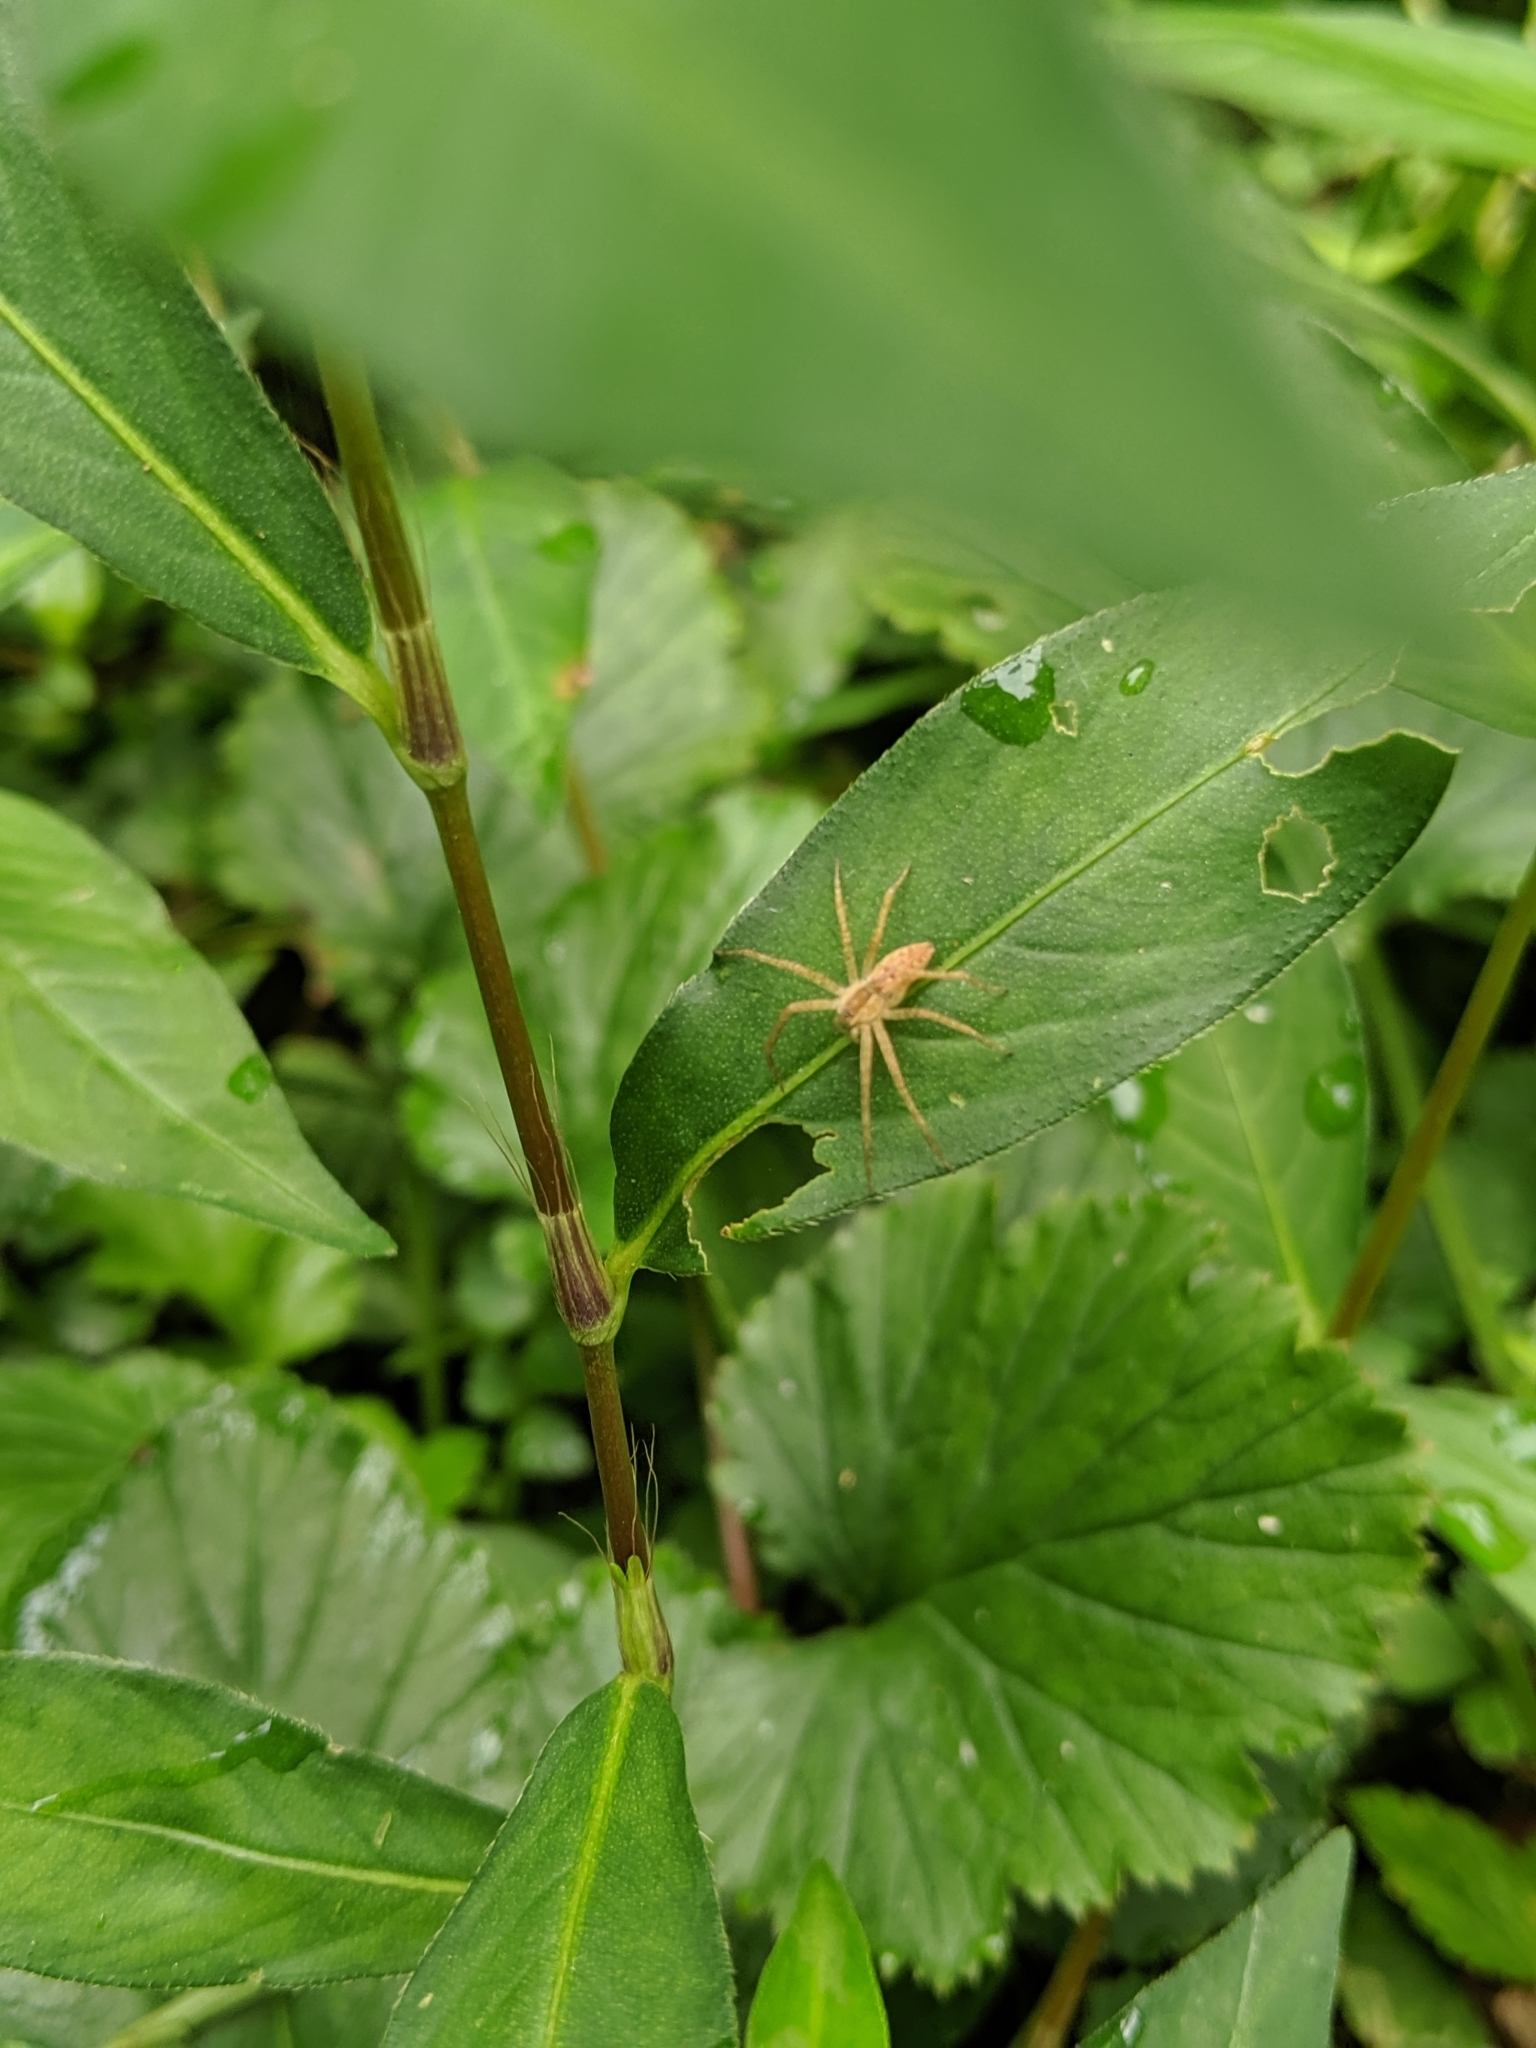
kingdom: Animalia
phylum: Arthropoda
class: Arachnida
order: Araneae
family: Pisauridae
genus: Pisaurina
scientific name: Pisaurina mira
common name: American nursery web spider
